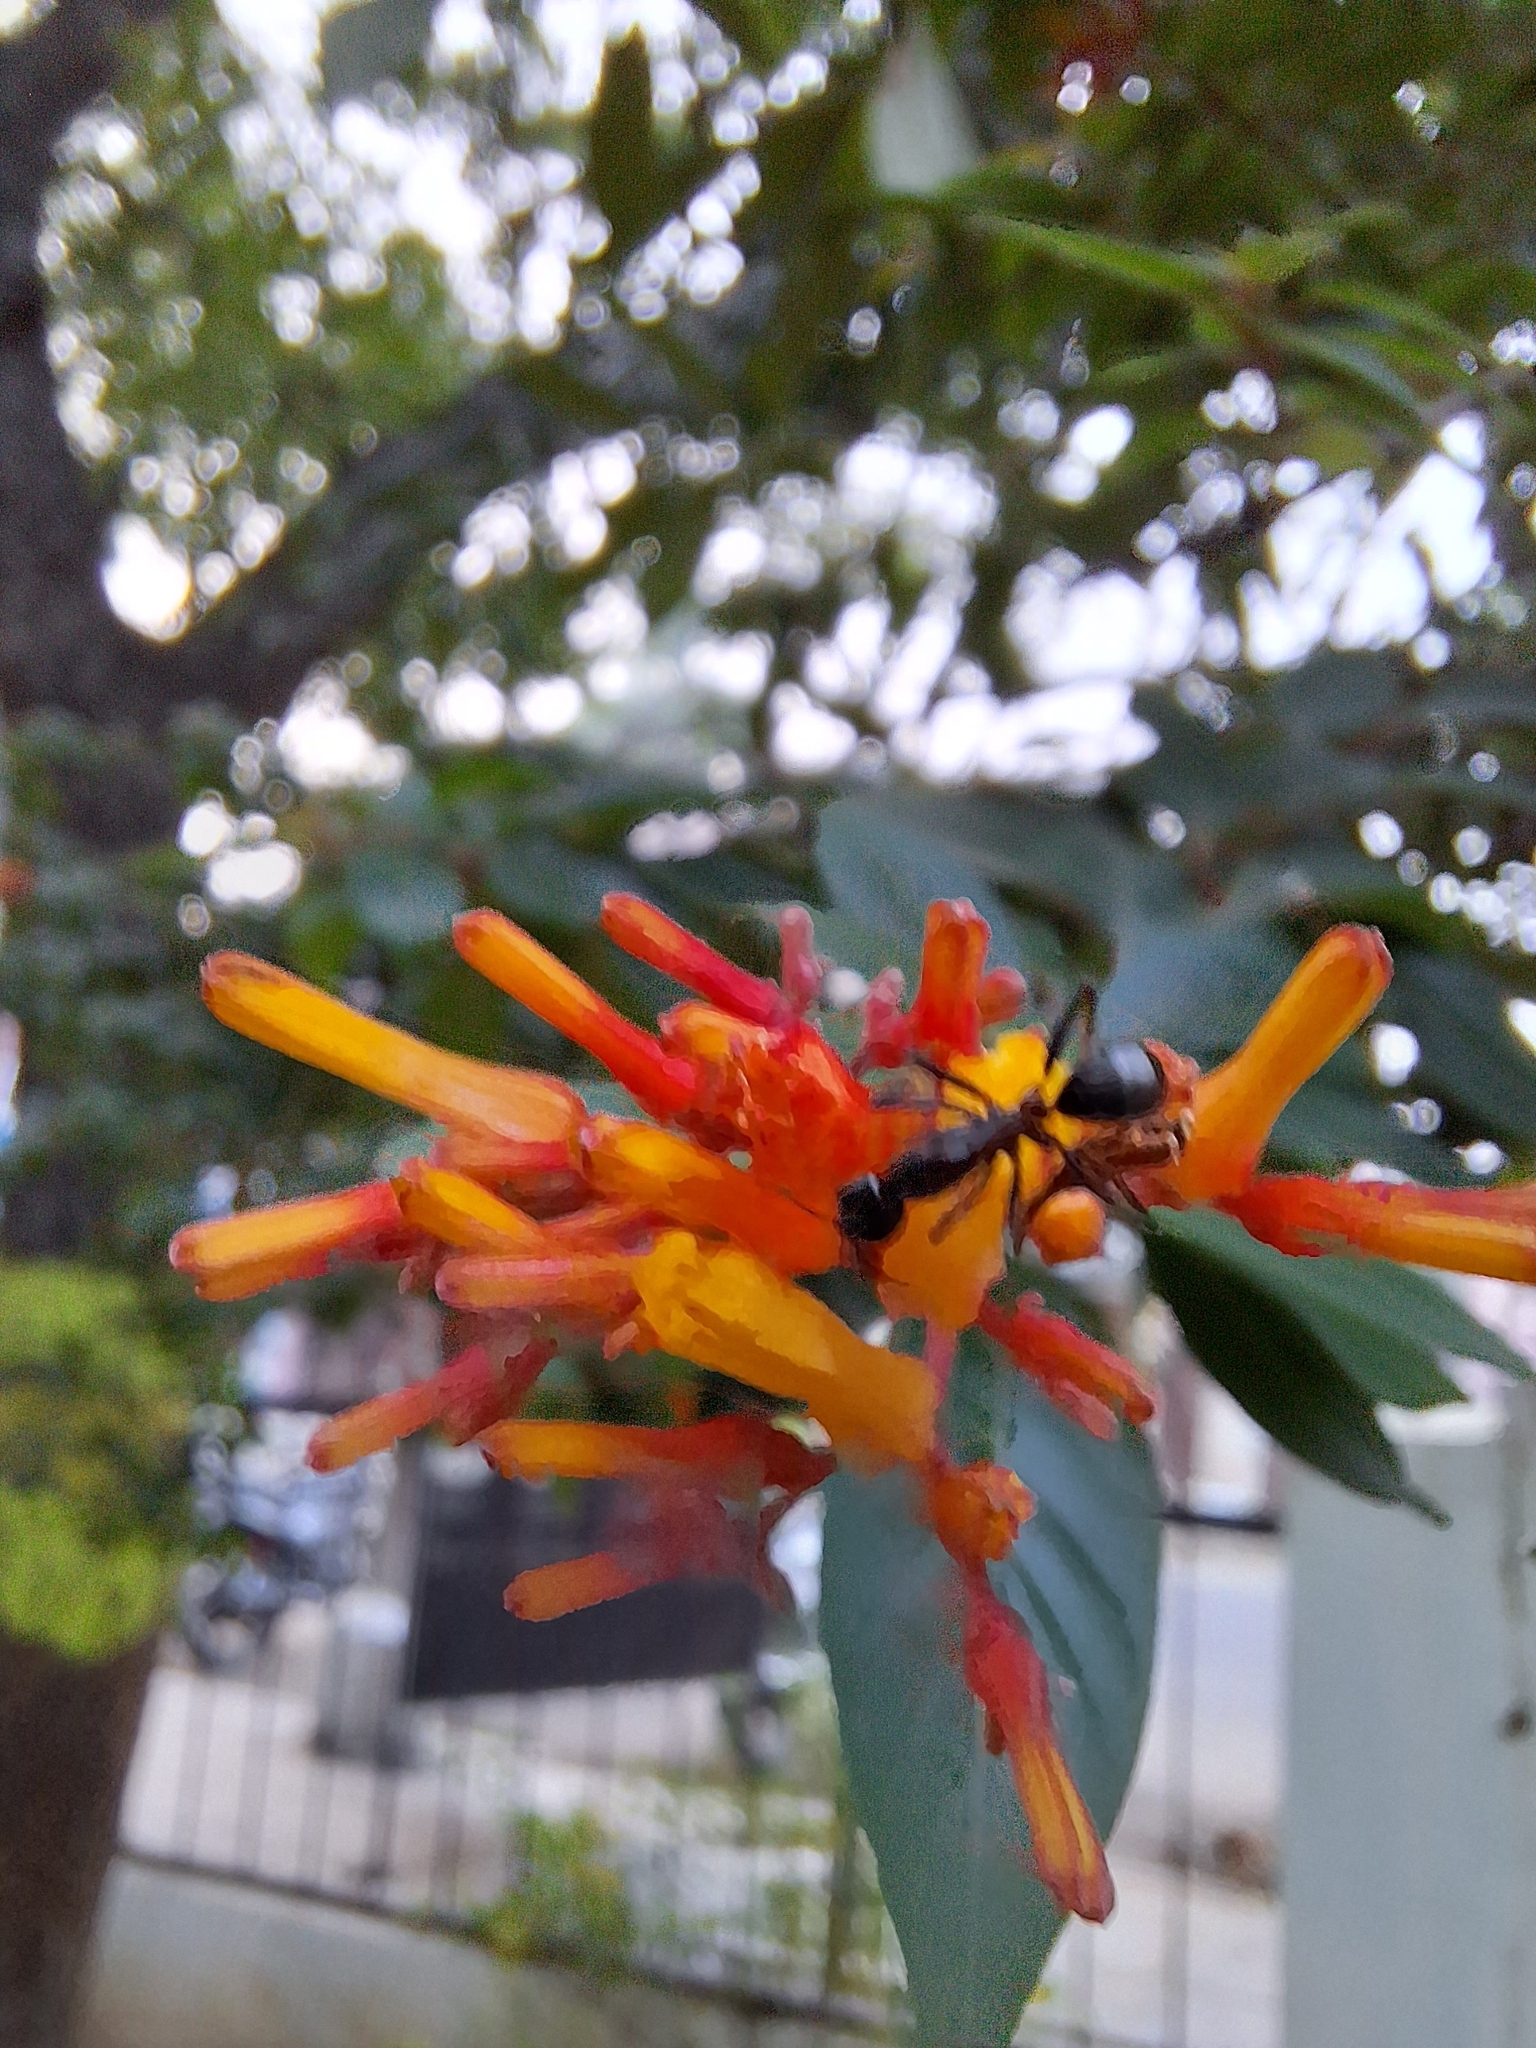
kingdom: Animalia
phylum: Arthropoda
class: Insecta
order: Hymenoptera
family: Formicidae
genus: Camponotus
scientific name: Camponotus compressus
